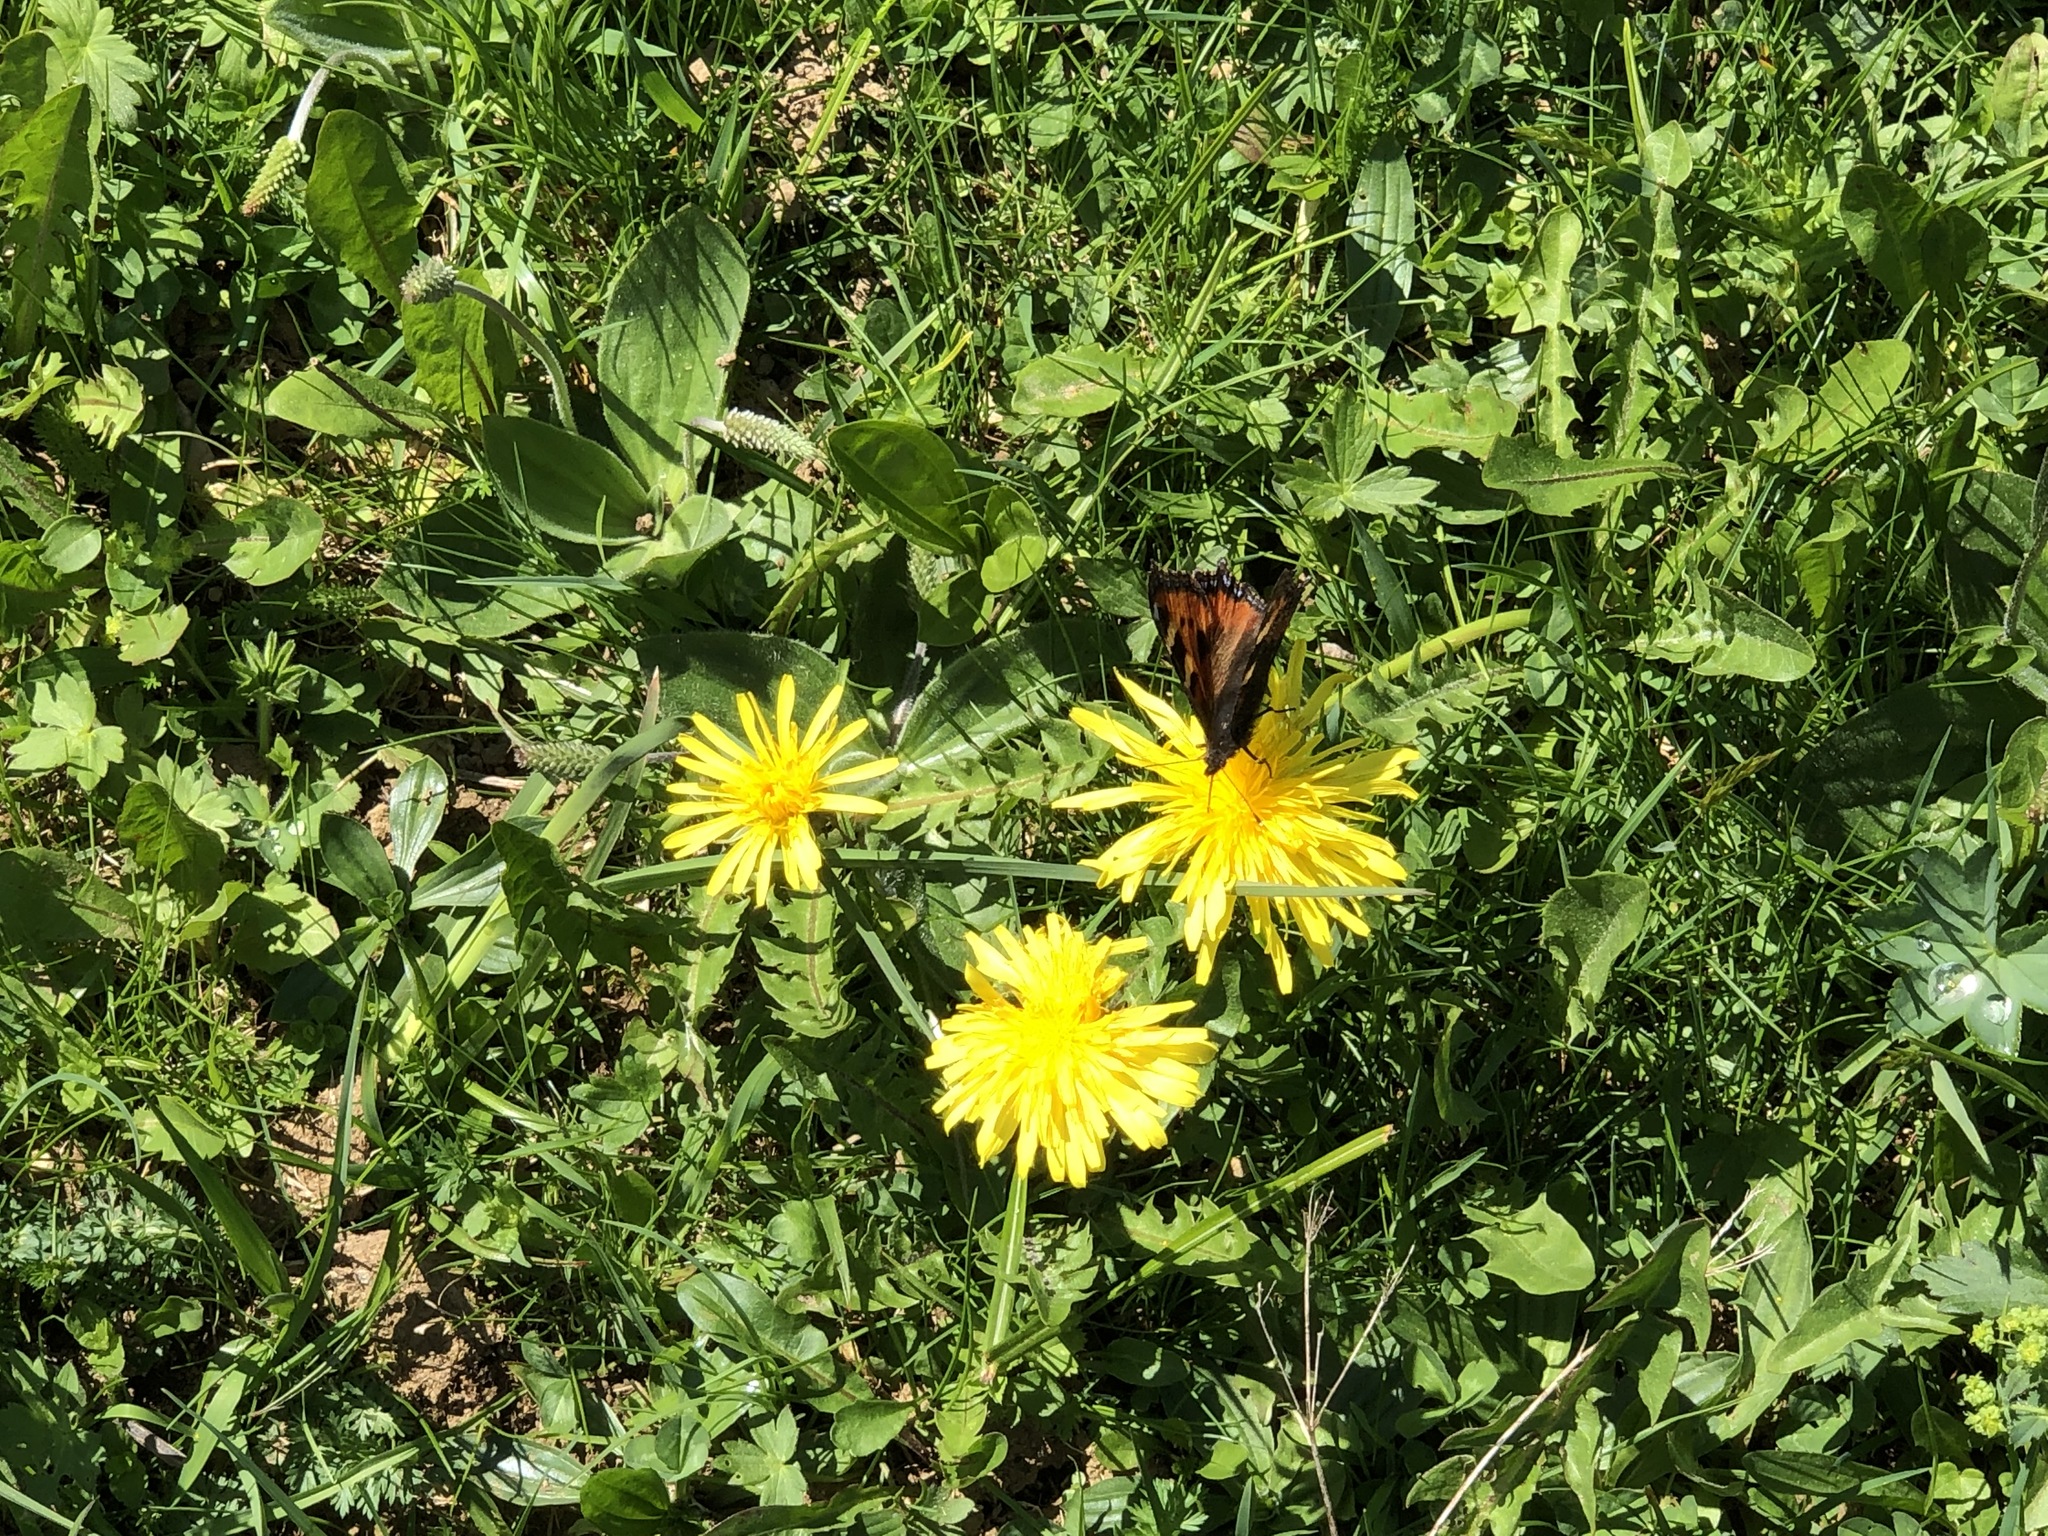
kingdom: Animalia
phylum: Arthropoda
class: Insecta
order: Lepidoptera
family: Nymphalidae
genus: Aglais
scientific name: Aglais urticae
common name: Small tortoiseshell
